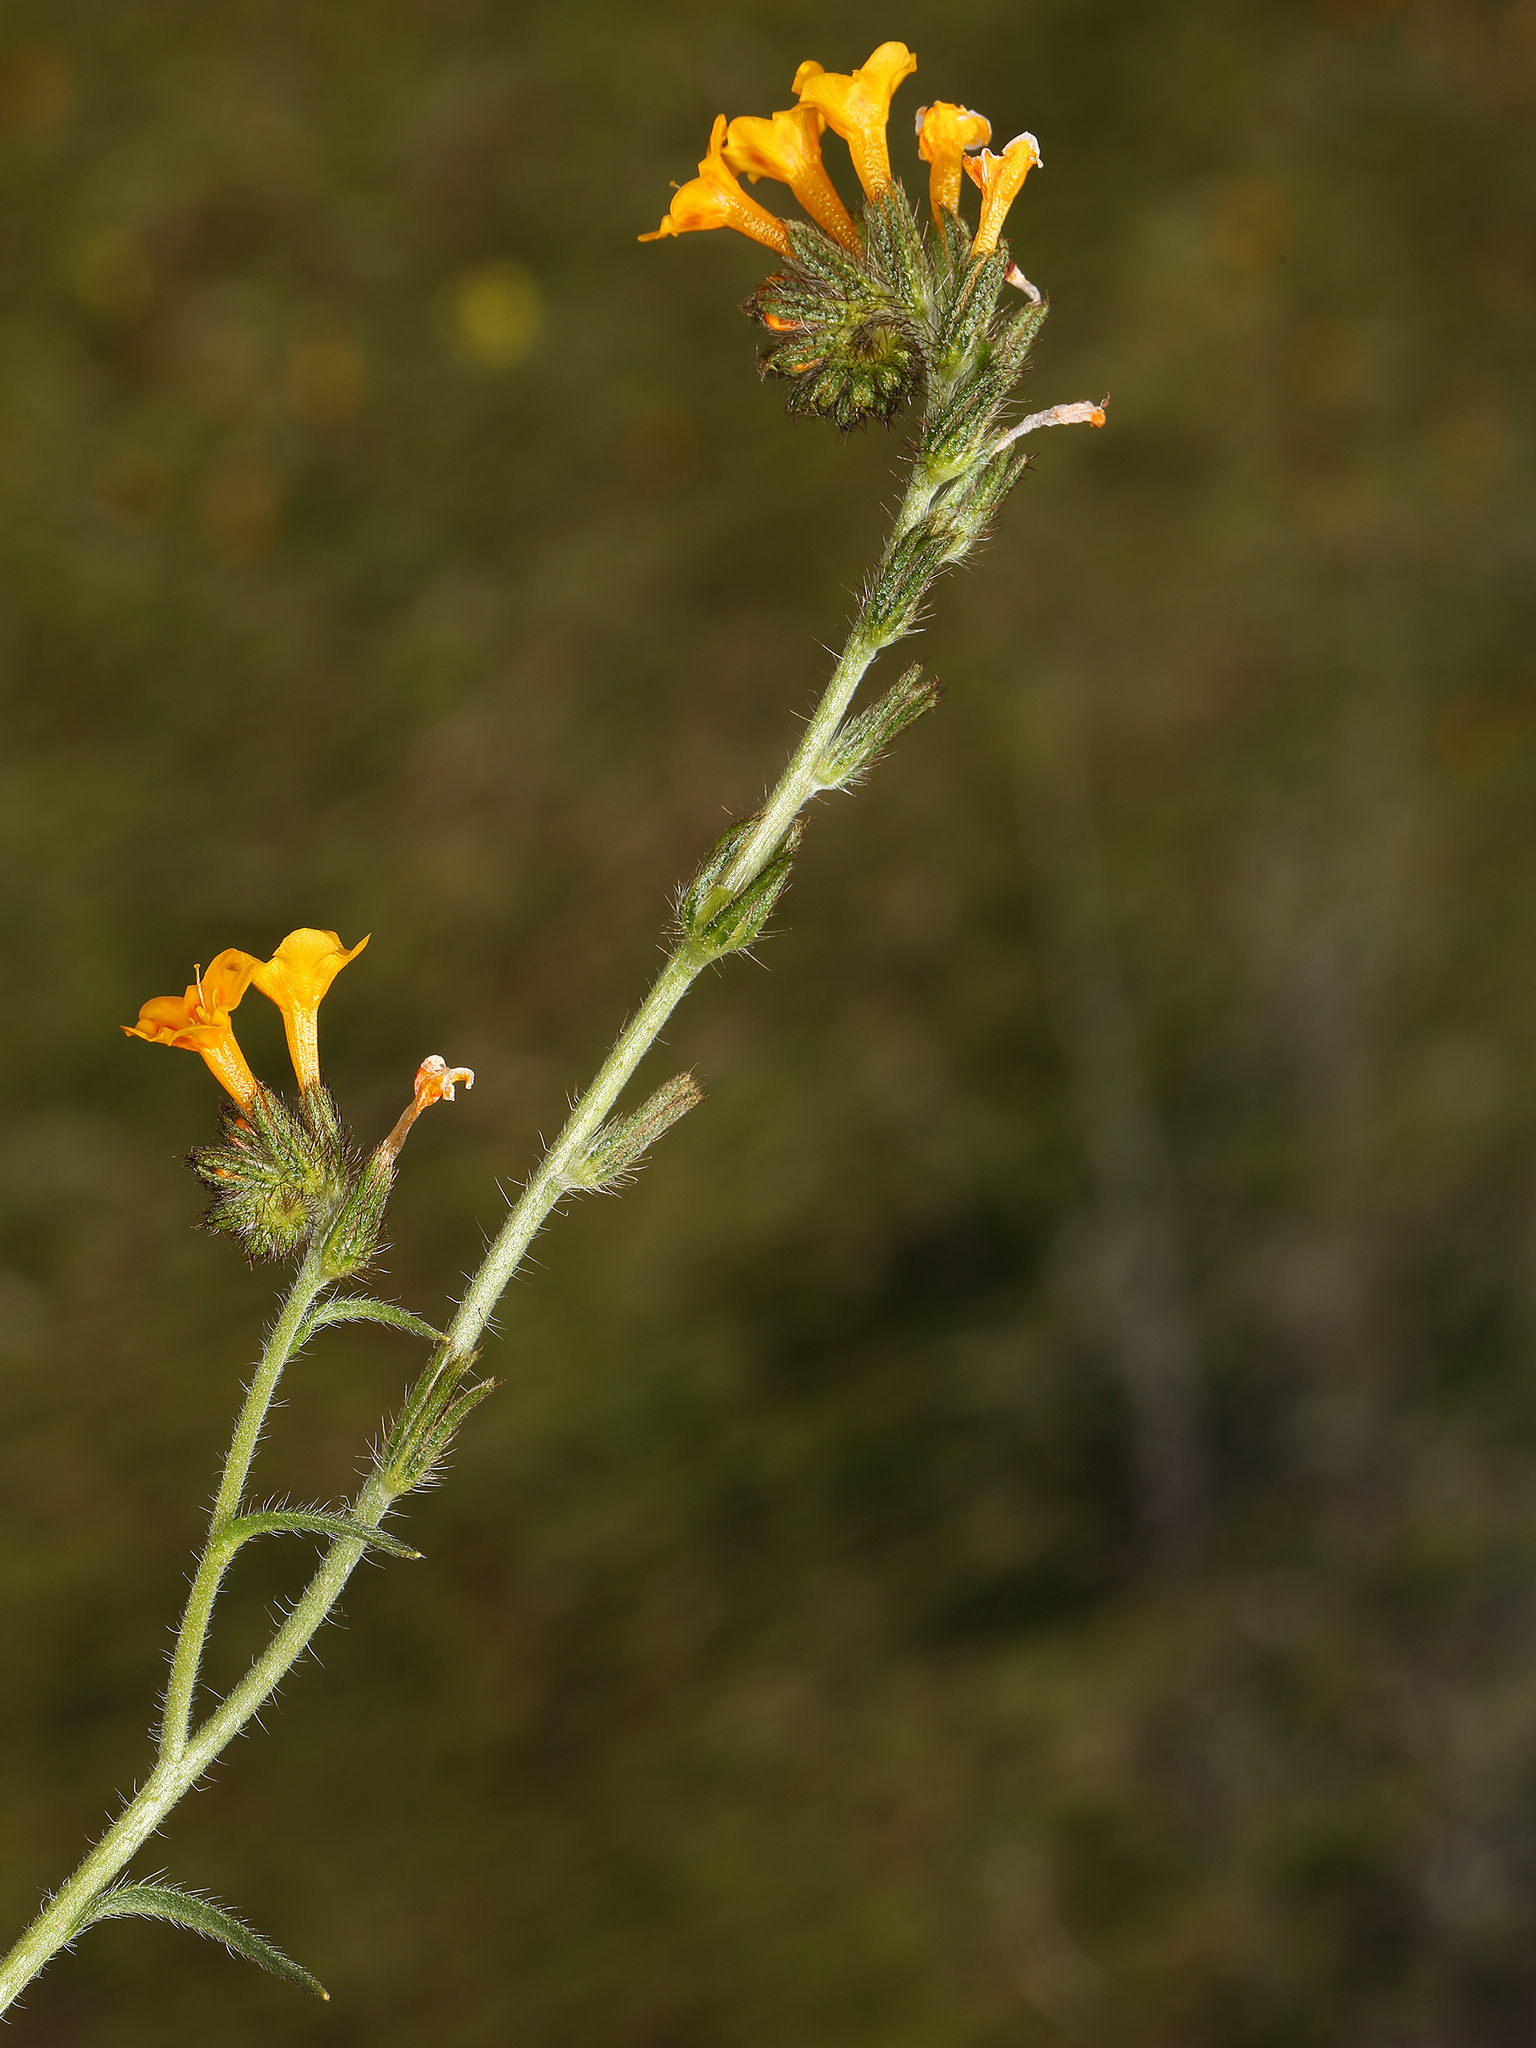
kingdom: Plantae
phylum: Tracheophyta
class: Magnoliopsida
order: Boraginales
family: Boraginaceae
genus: Amsinckia
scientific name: Amsinckia eastwoodiae
